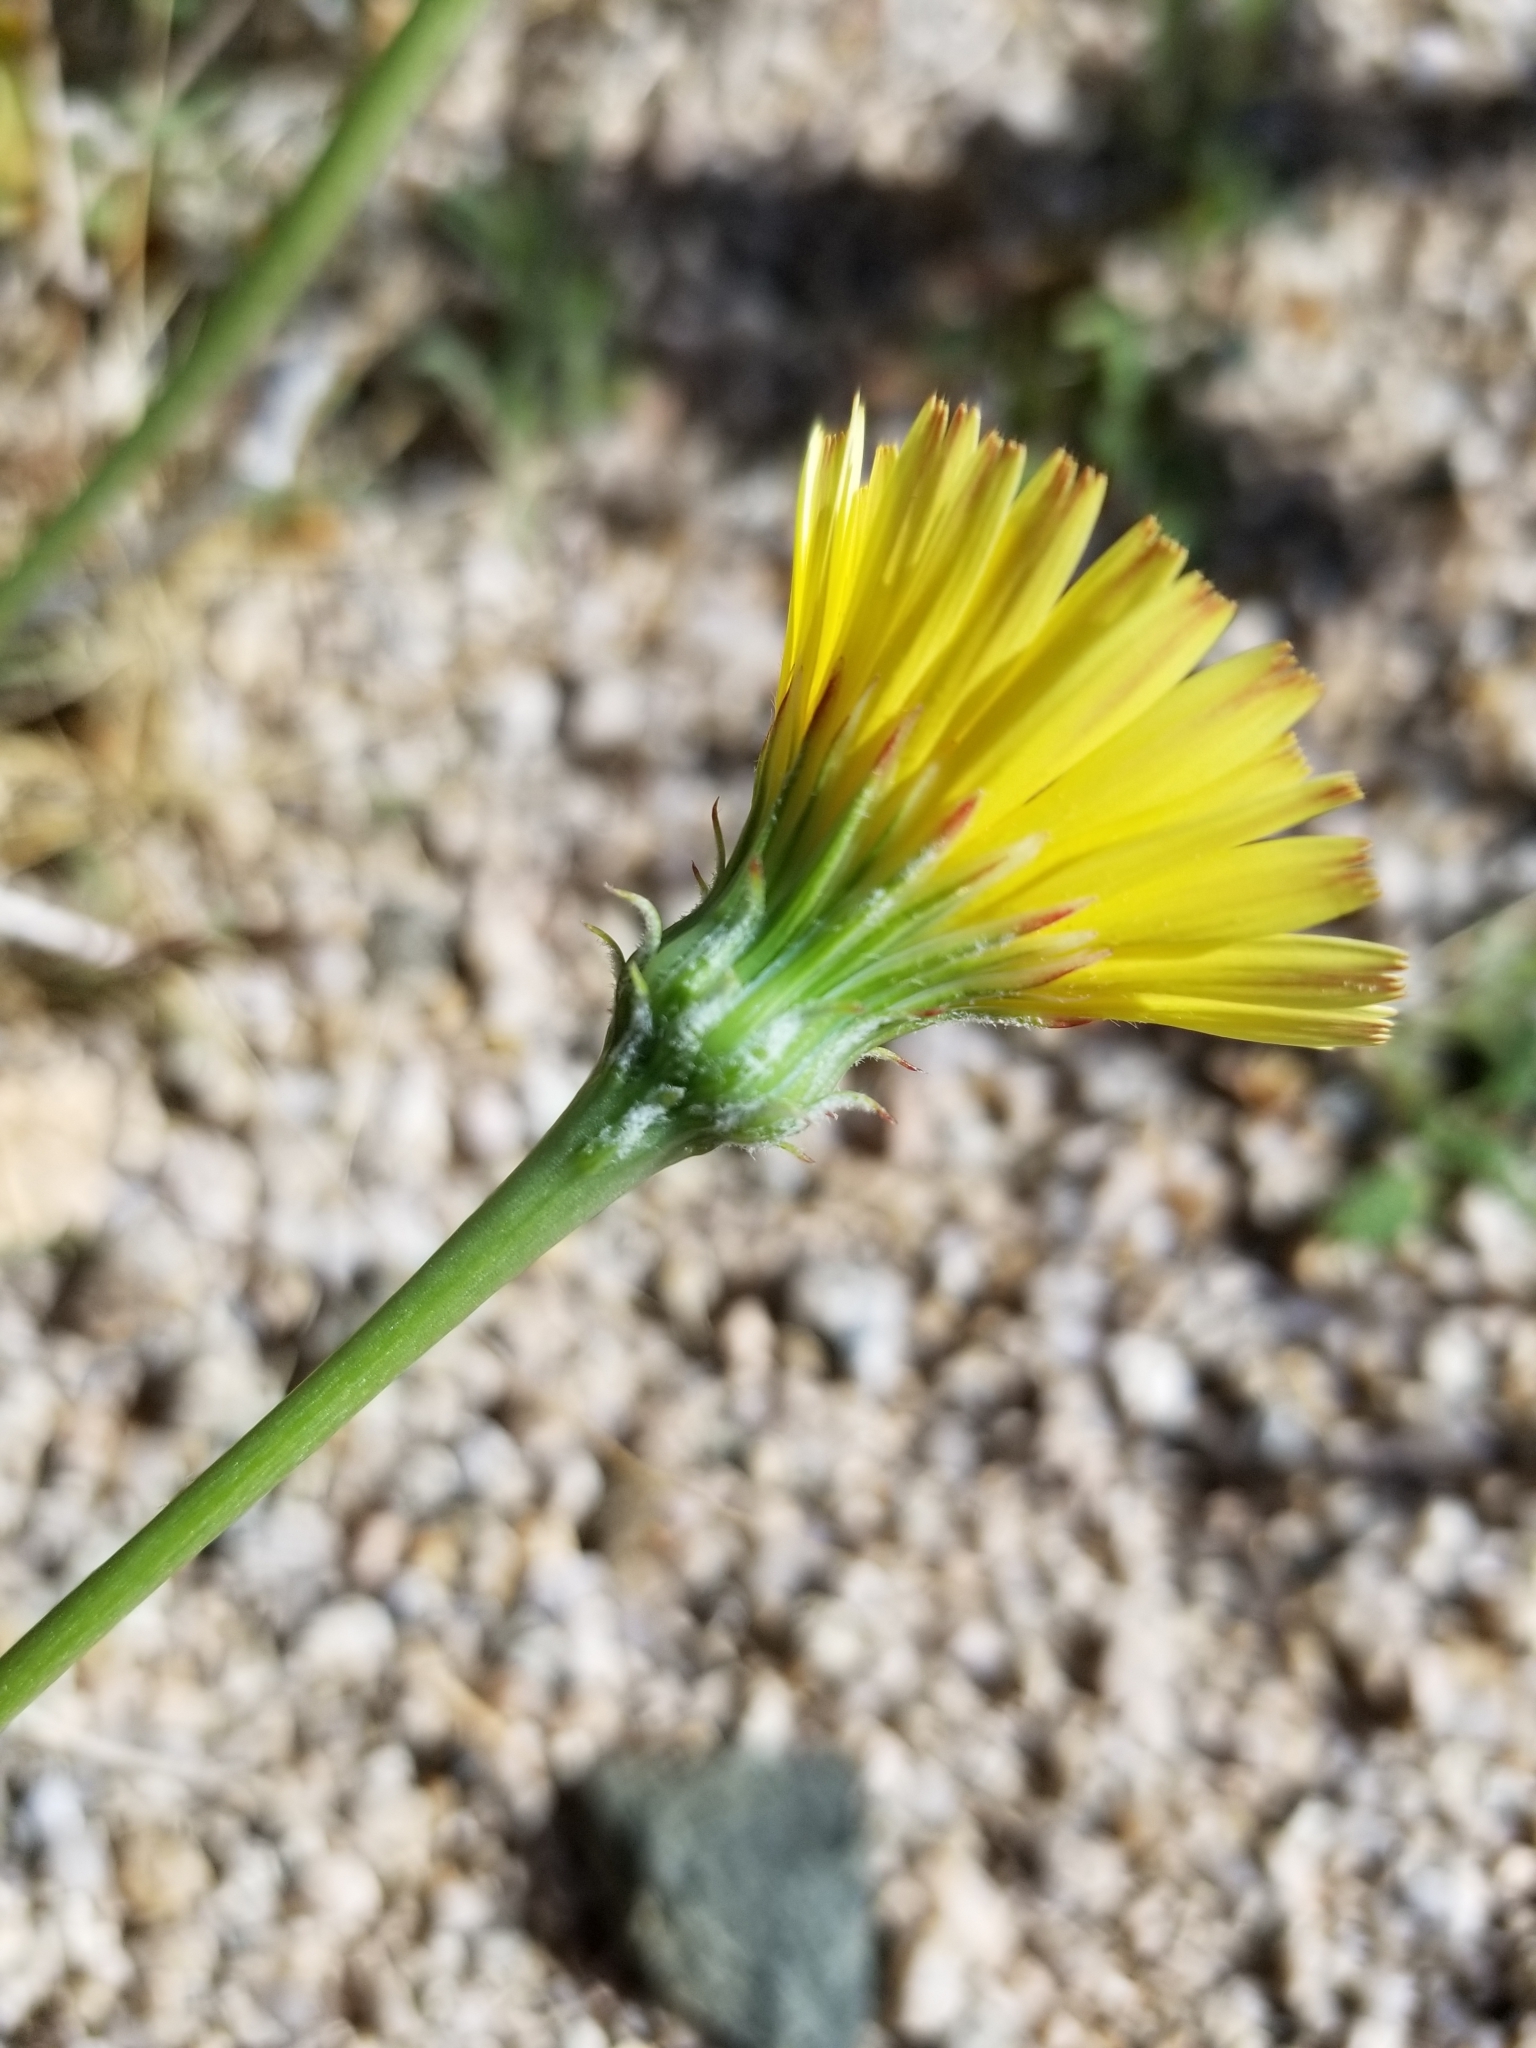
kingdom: Plantae
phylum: Tracheophyta
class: Magnoliopsida
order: Asterales
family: Asteraceae
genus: Malacothrix
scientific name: Malacothrix glabrata
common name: Smooth desert-dandelion
